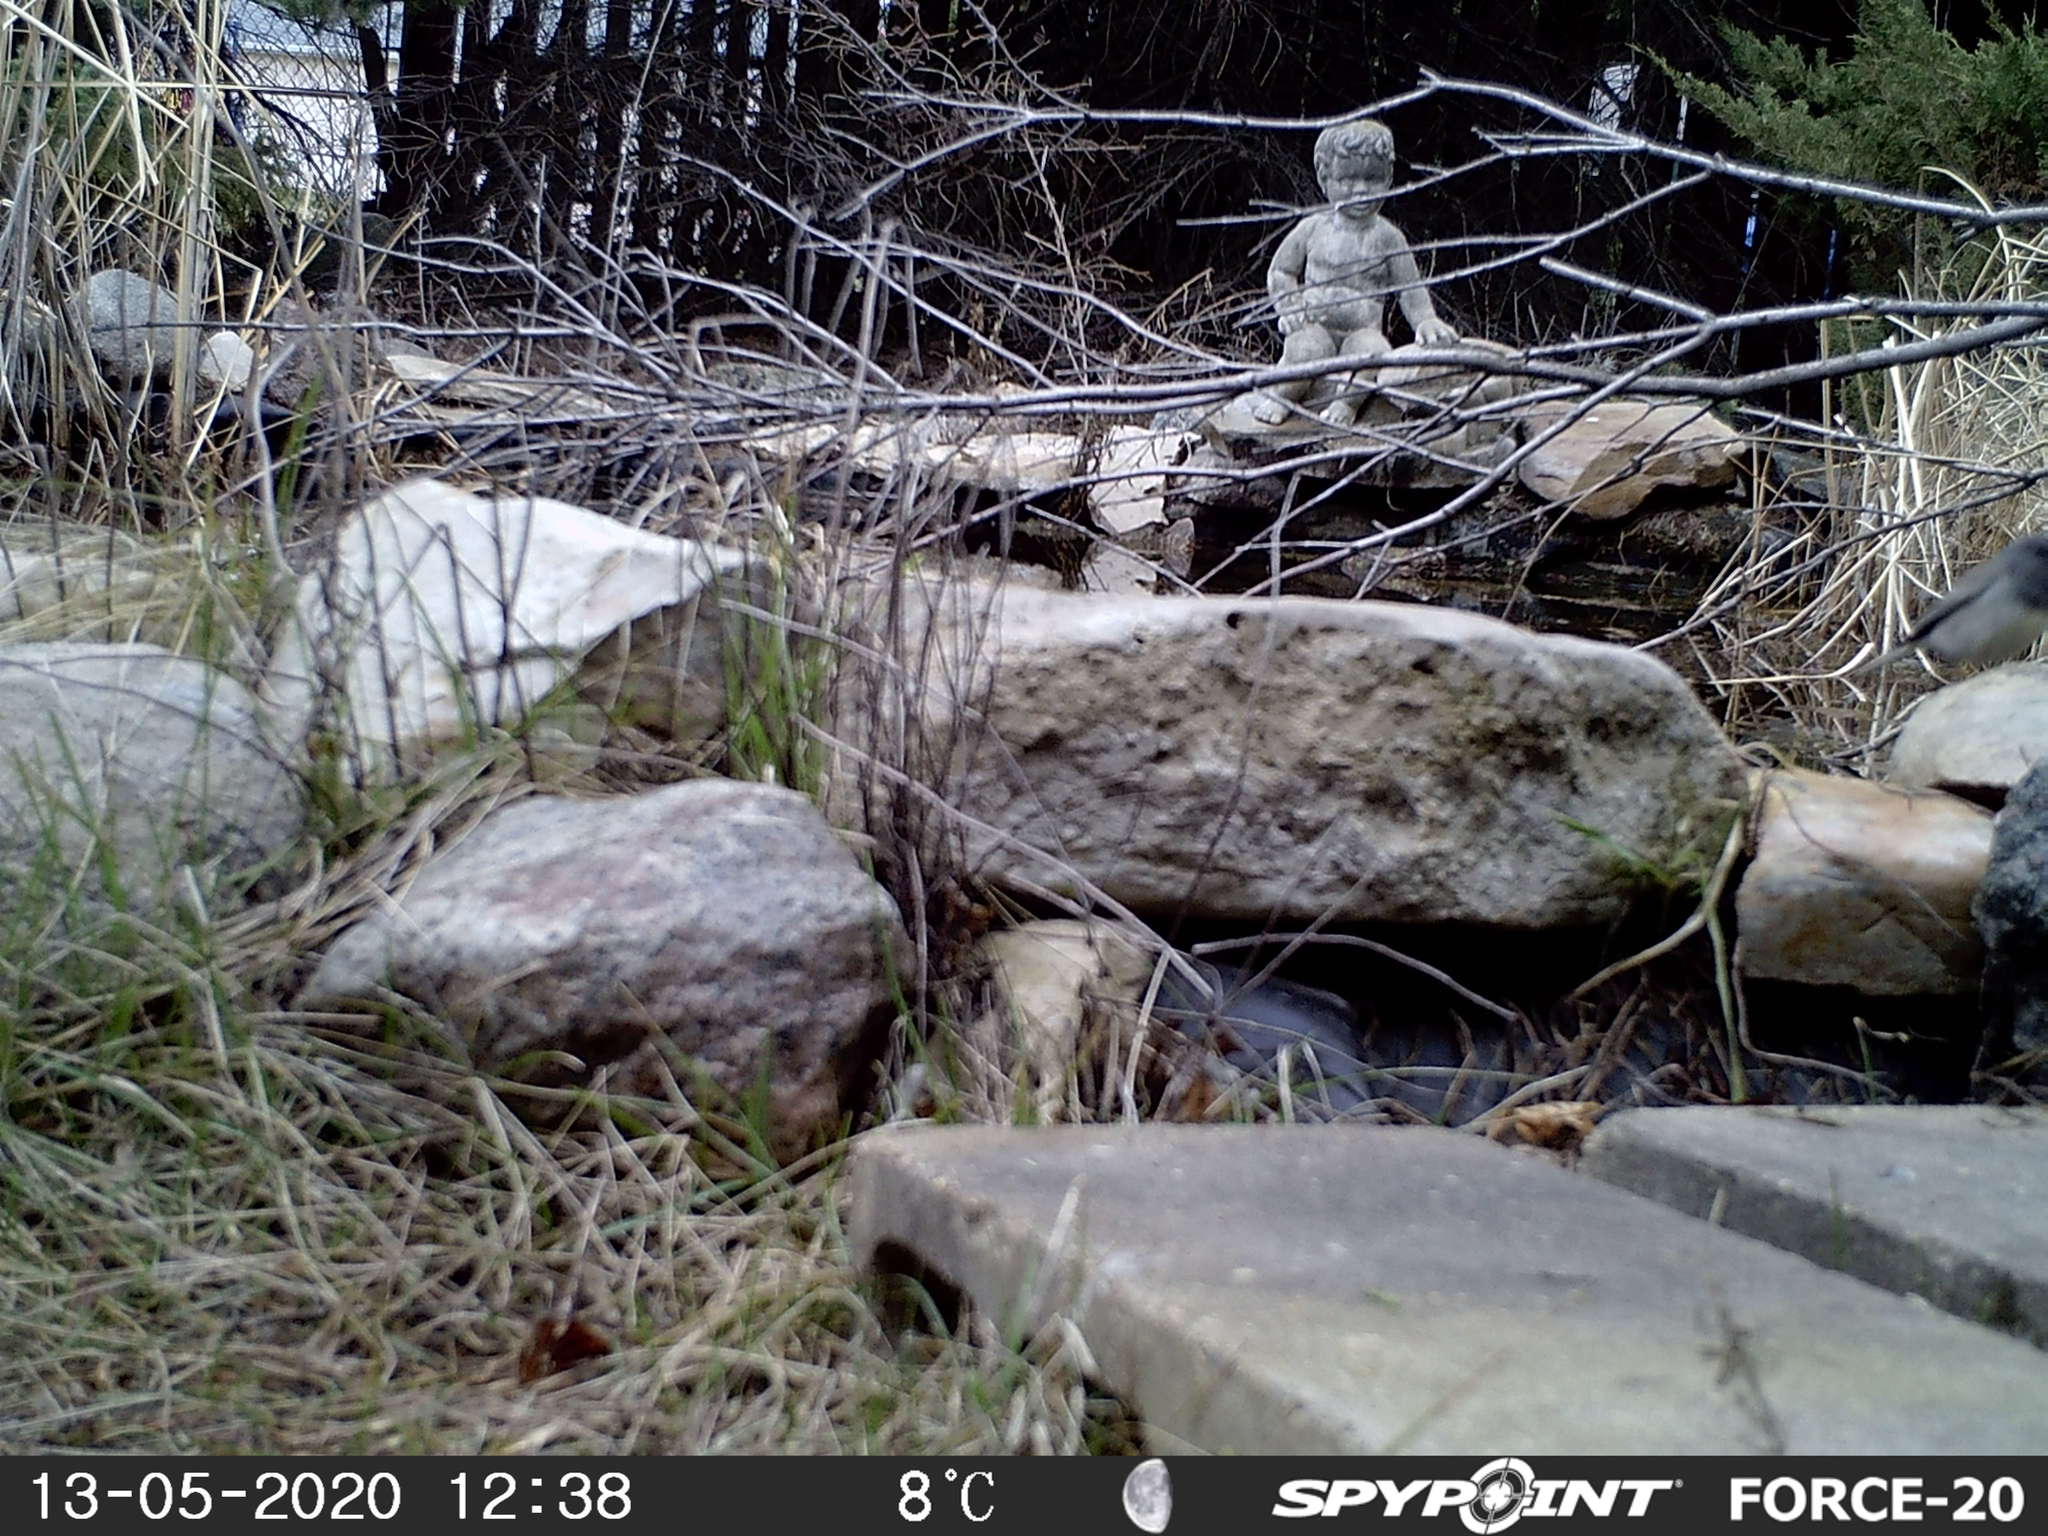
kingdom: Animalia
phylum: Chordata
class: Aves
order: Passeriformes
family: Passerellidae
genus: Junco
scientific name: Junco hyemalis
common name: Dark-eyed junco
